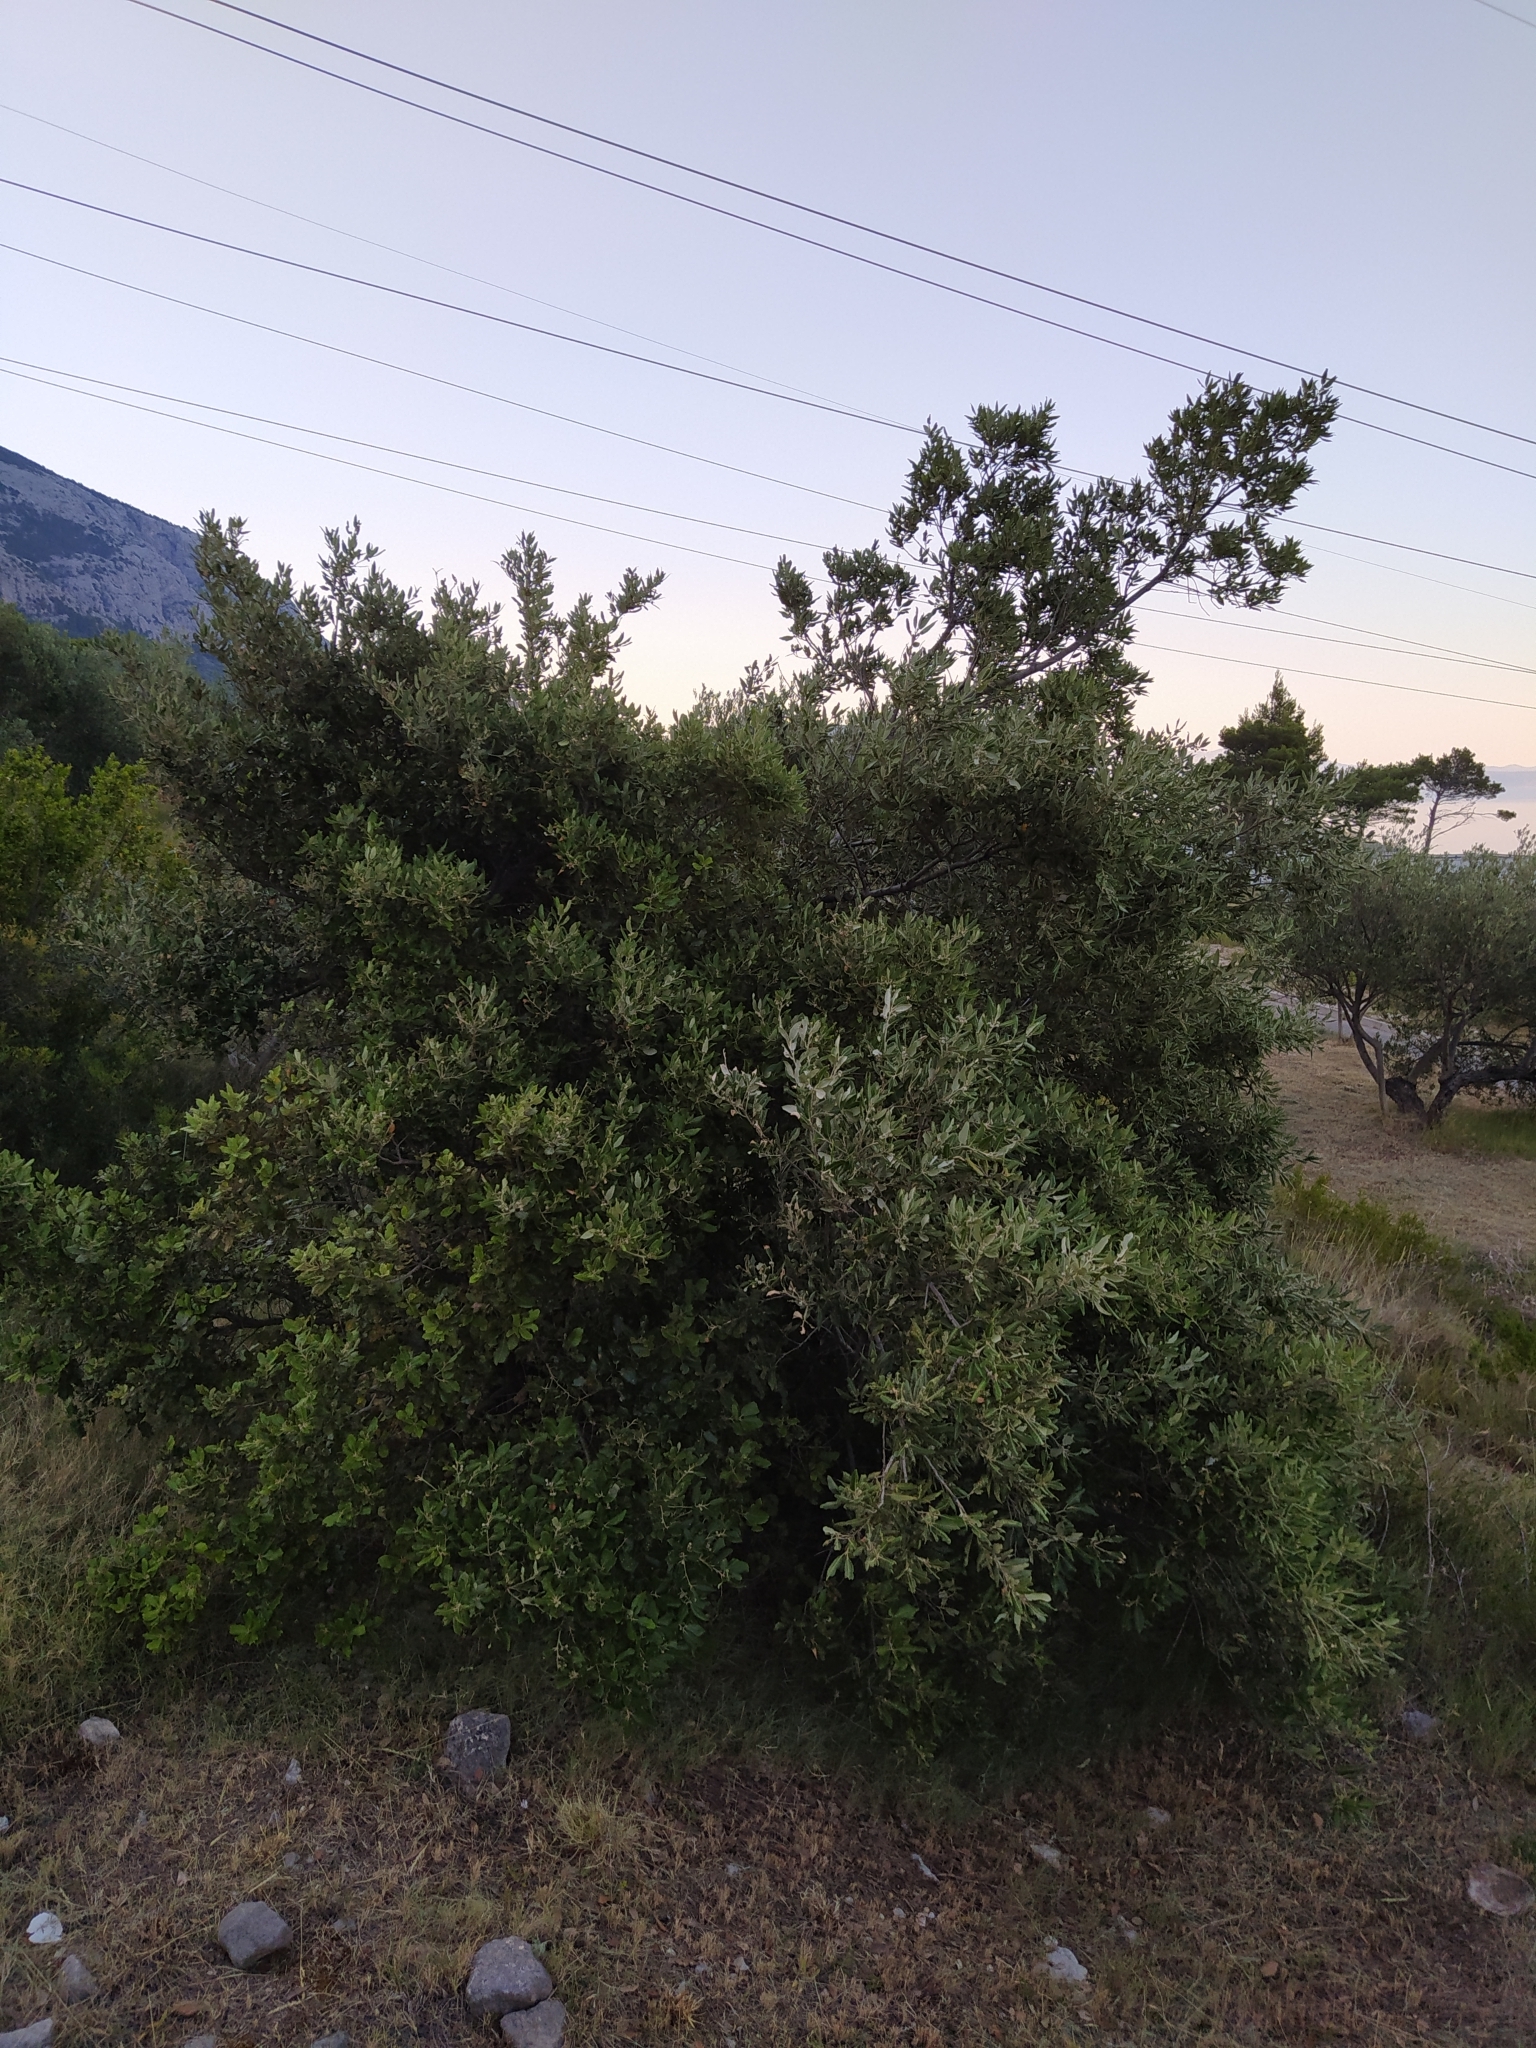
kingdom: Plantae
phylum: Tracheophyta
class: Magnoliopsida
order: Fagales
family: Fagaceae
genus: Quercus
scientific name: Quercus ilex
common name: Evergreen oak
